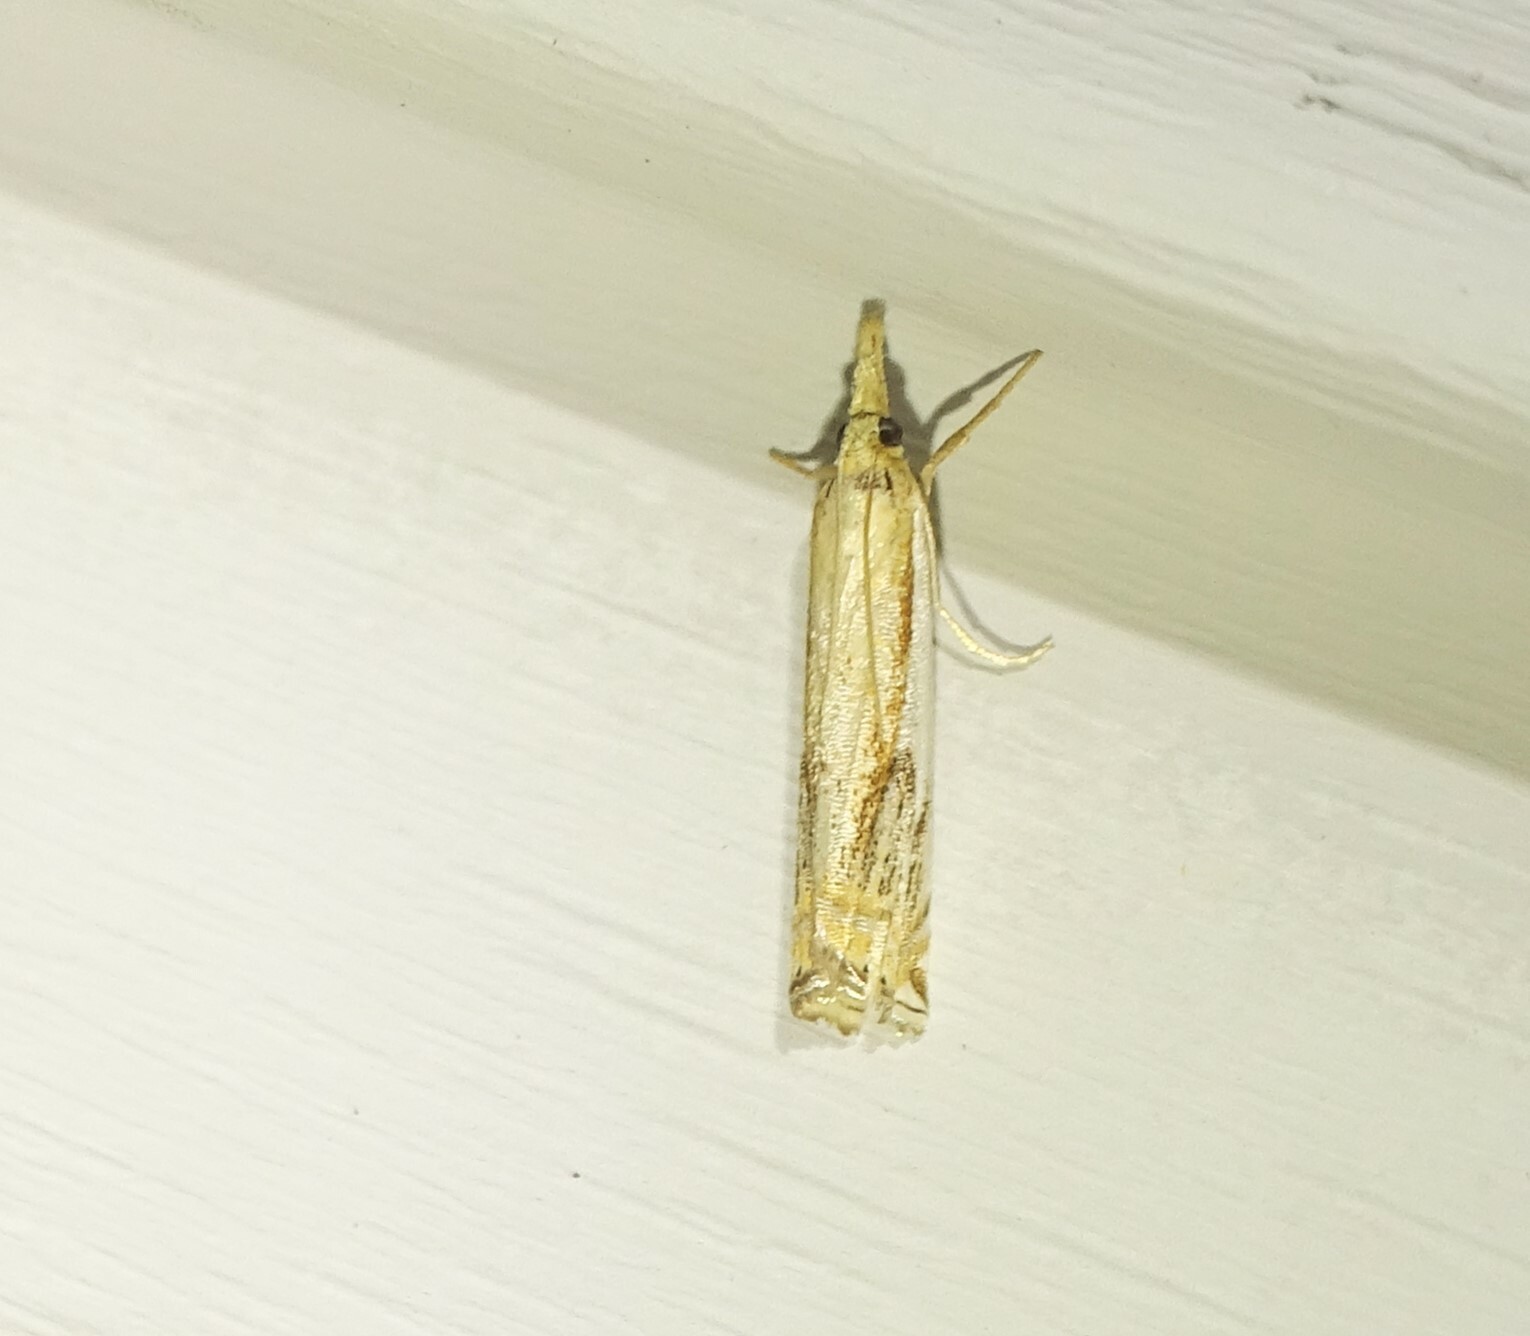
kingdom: Animalia
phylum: Arthropoda
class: Insecta
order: Lepidoptera
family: Crambidae
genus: Crambus
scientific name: Crambus agitatellus
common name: Double-banded grass-veneer
